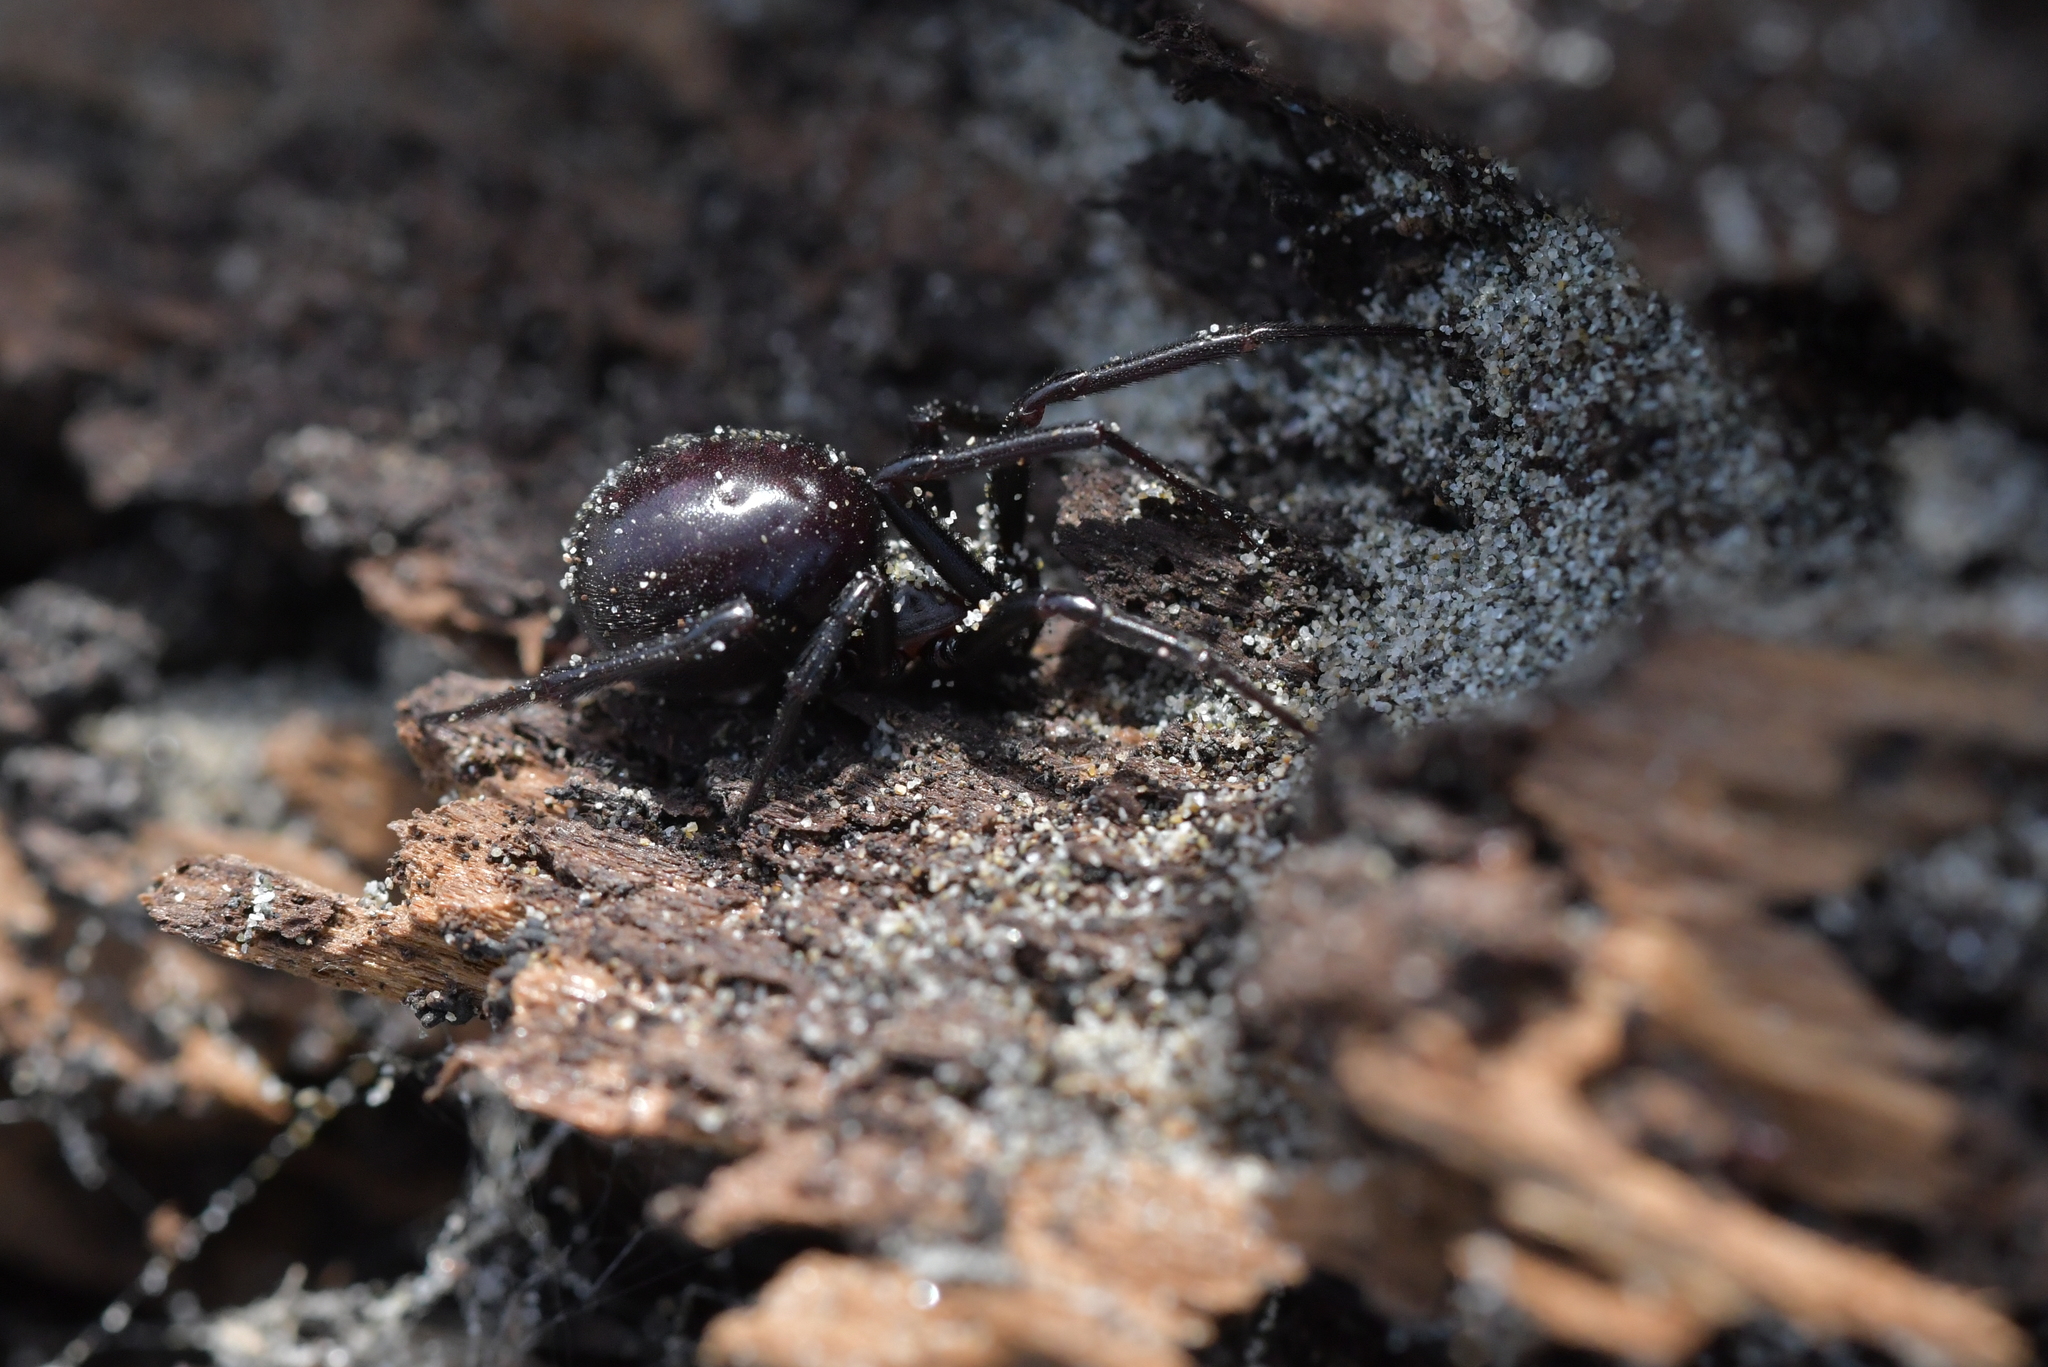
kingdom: Animalia
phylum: Arthropoda
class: Arachnida
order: Araneae
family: Theridiidae
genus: Steatoda
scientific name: Steatoda capensis
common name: Cobweb weaver
